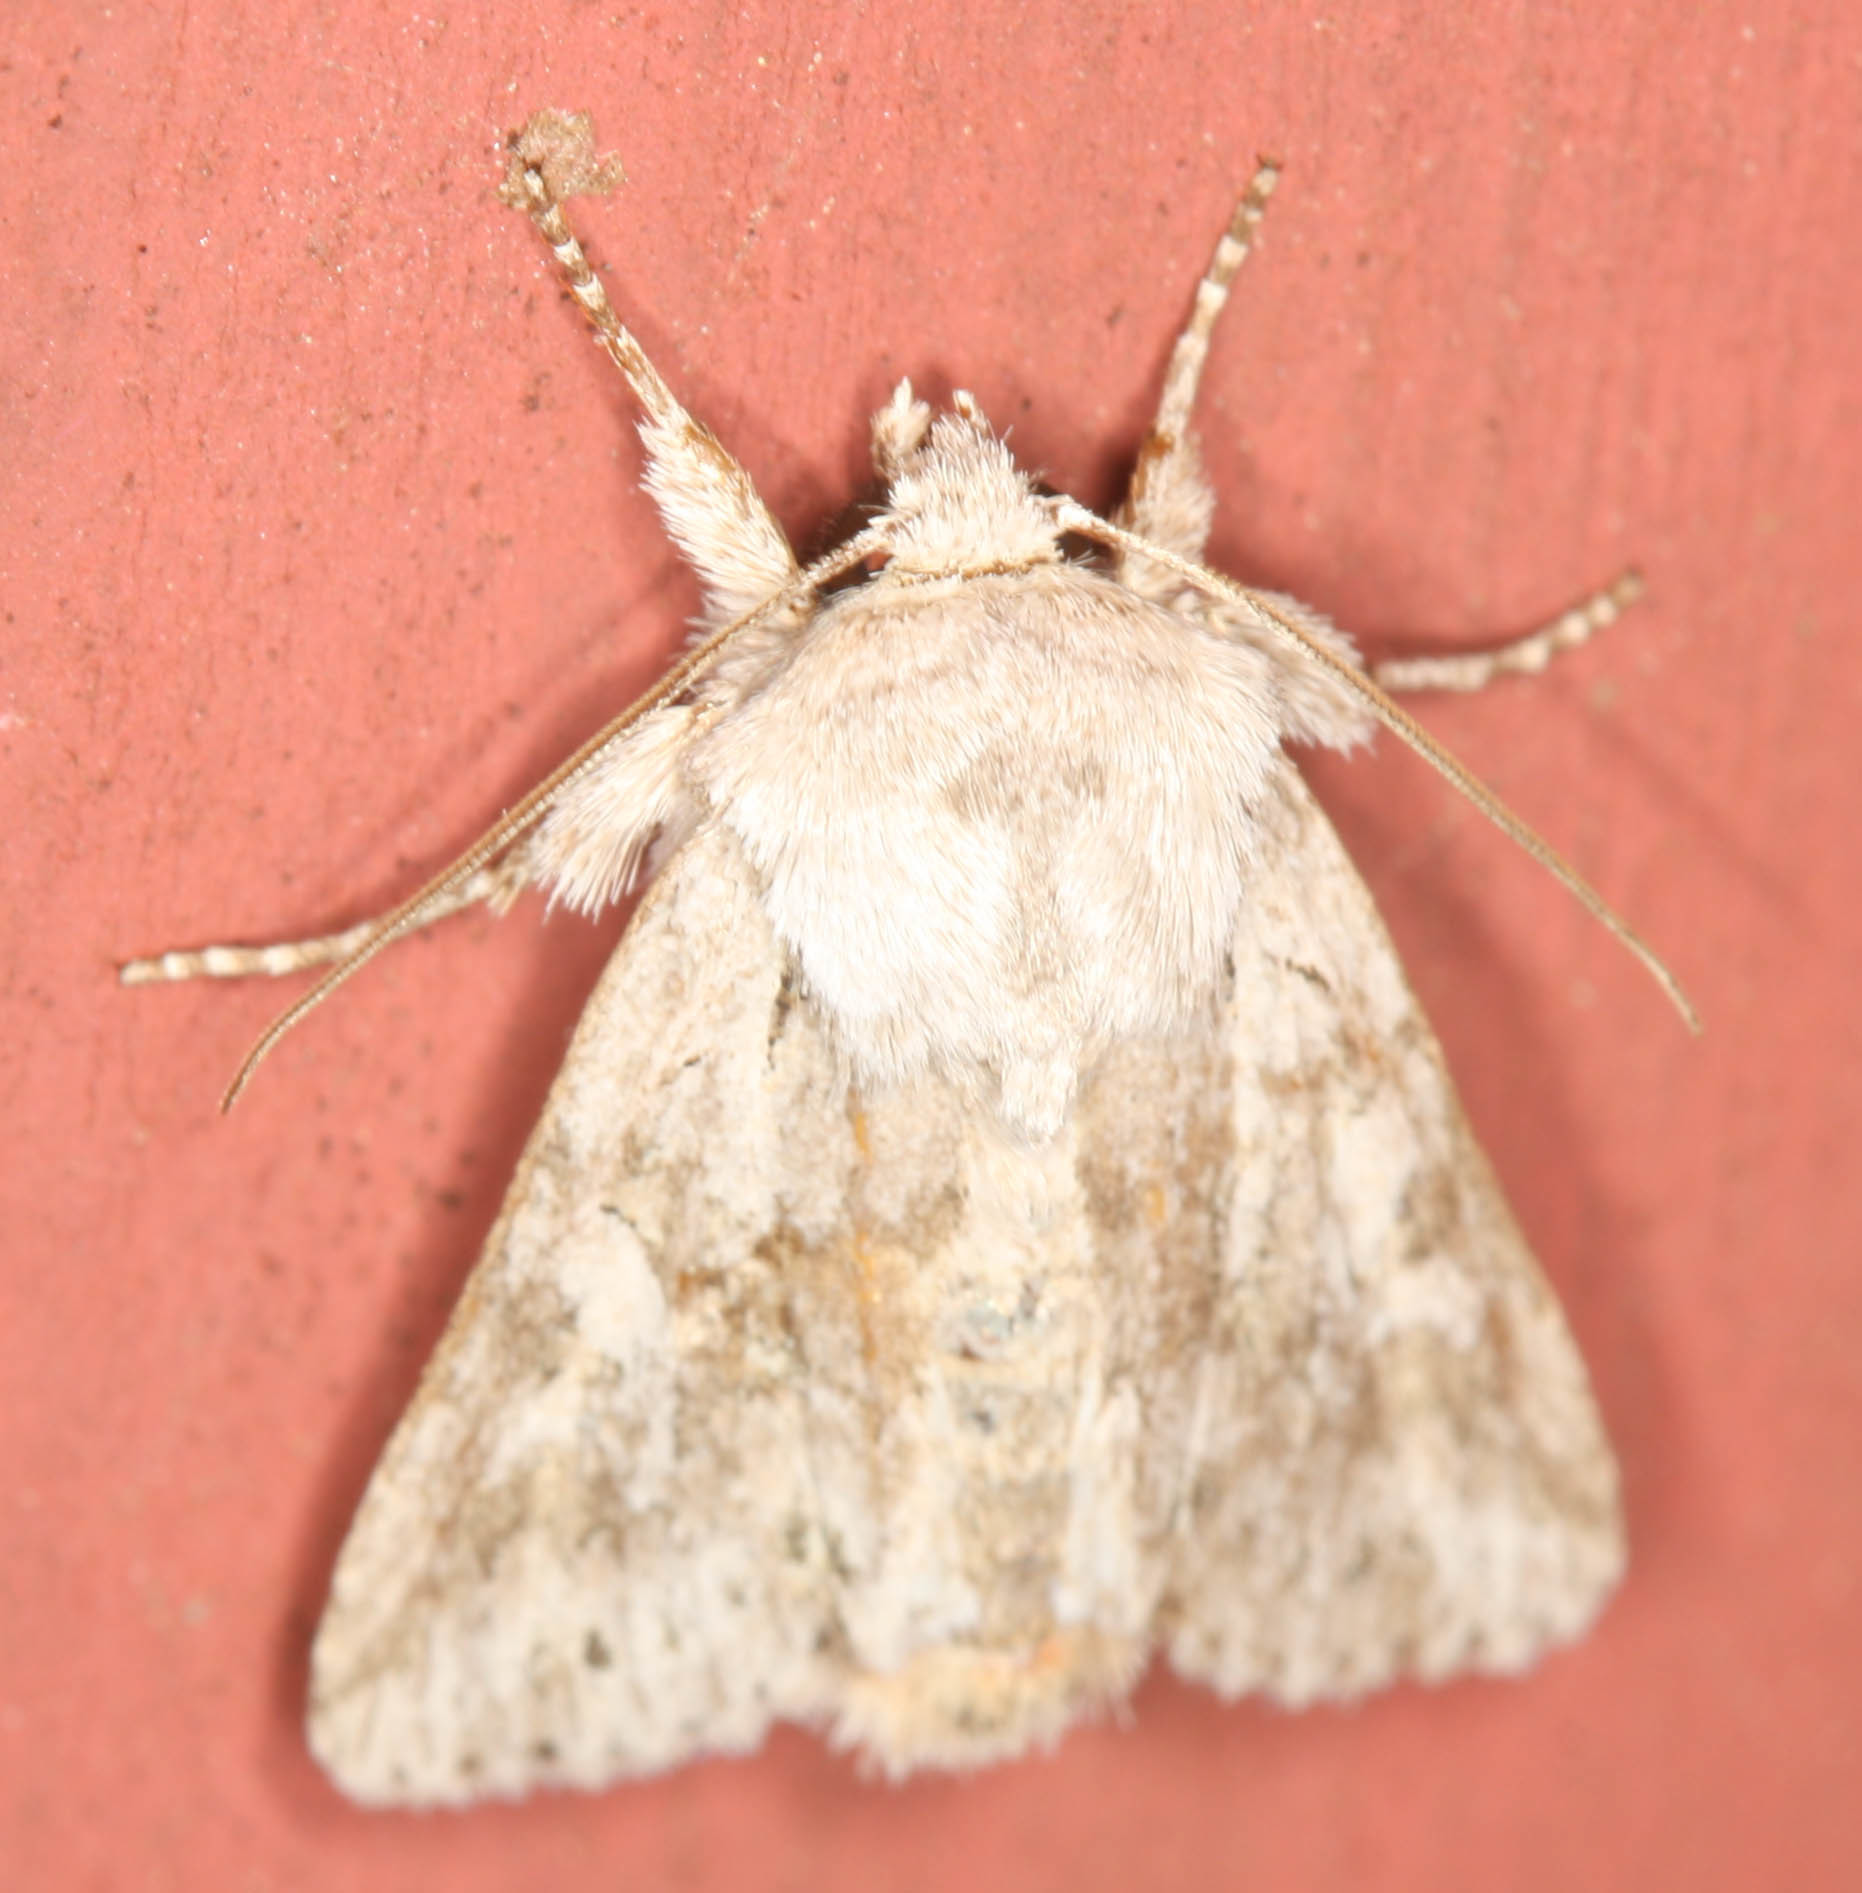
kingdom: Animalia
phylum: Arthropoda
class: Insecta
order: Lepidoptera
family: Noctuidae
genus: Lacinipolia
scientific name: Lacinipolia patalis
